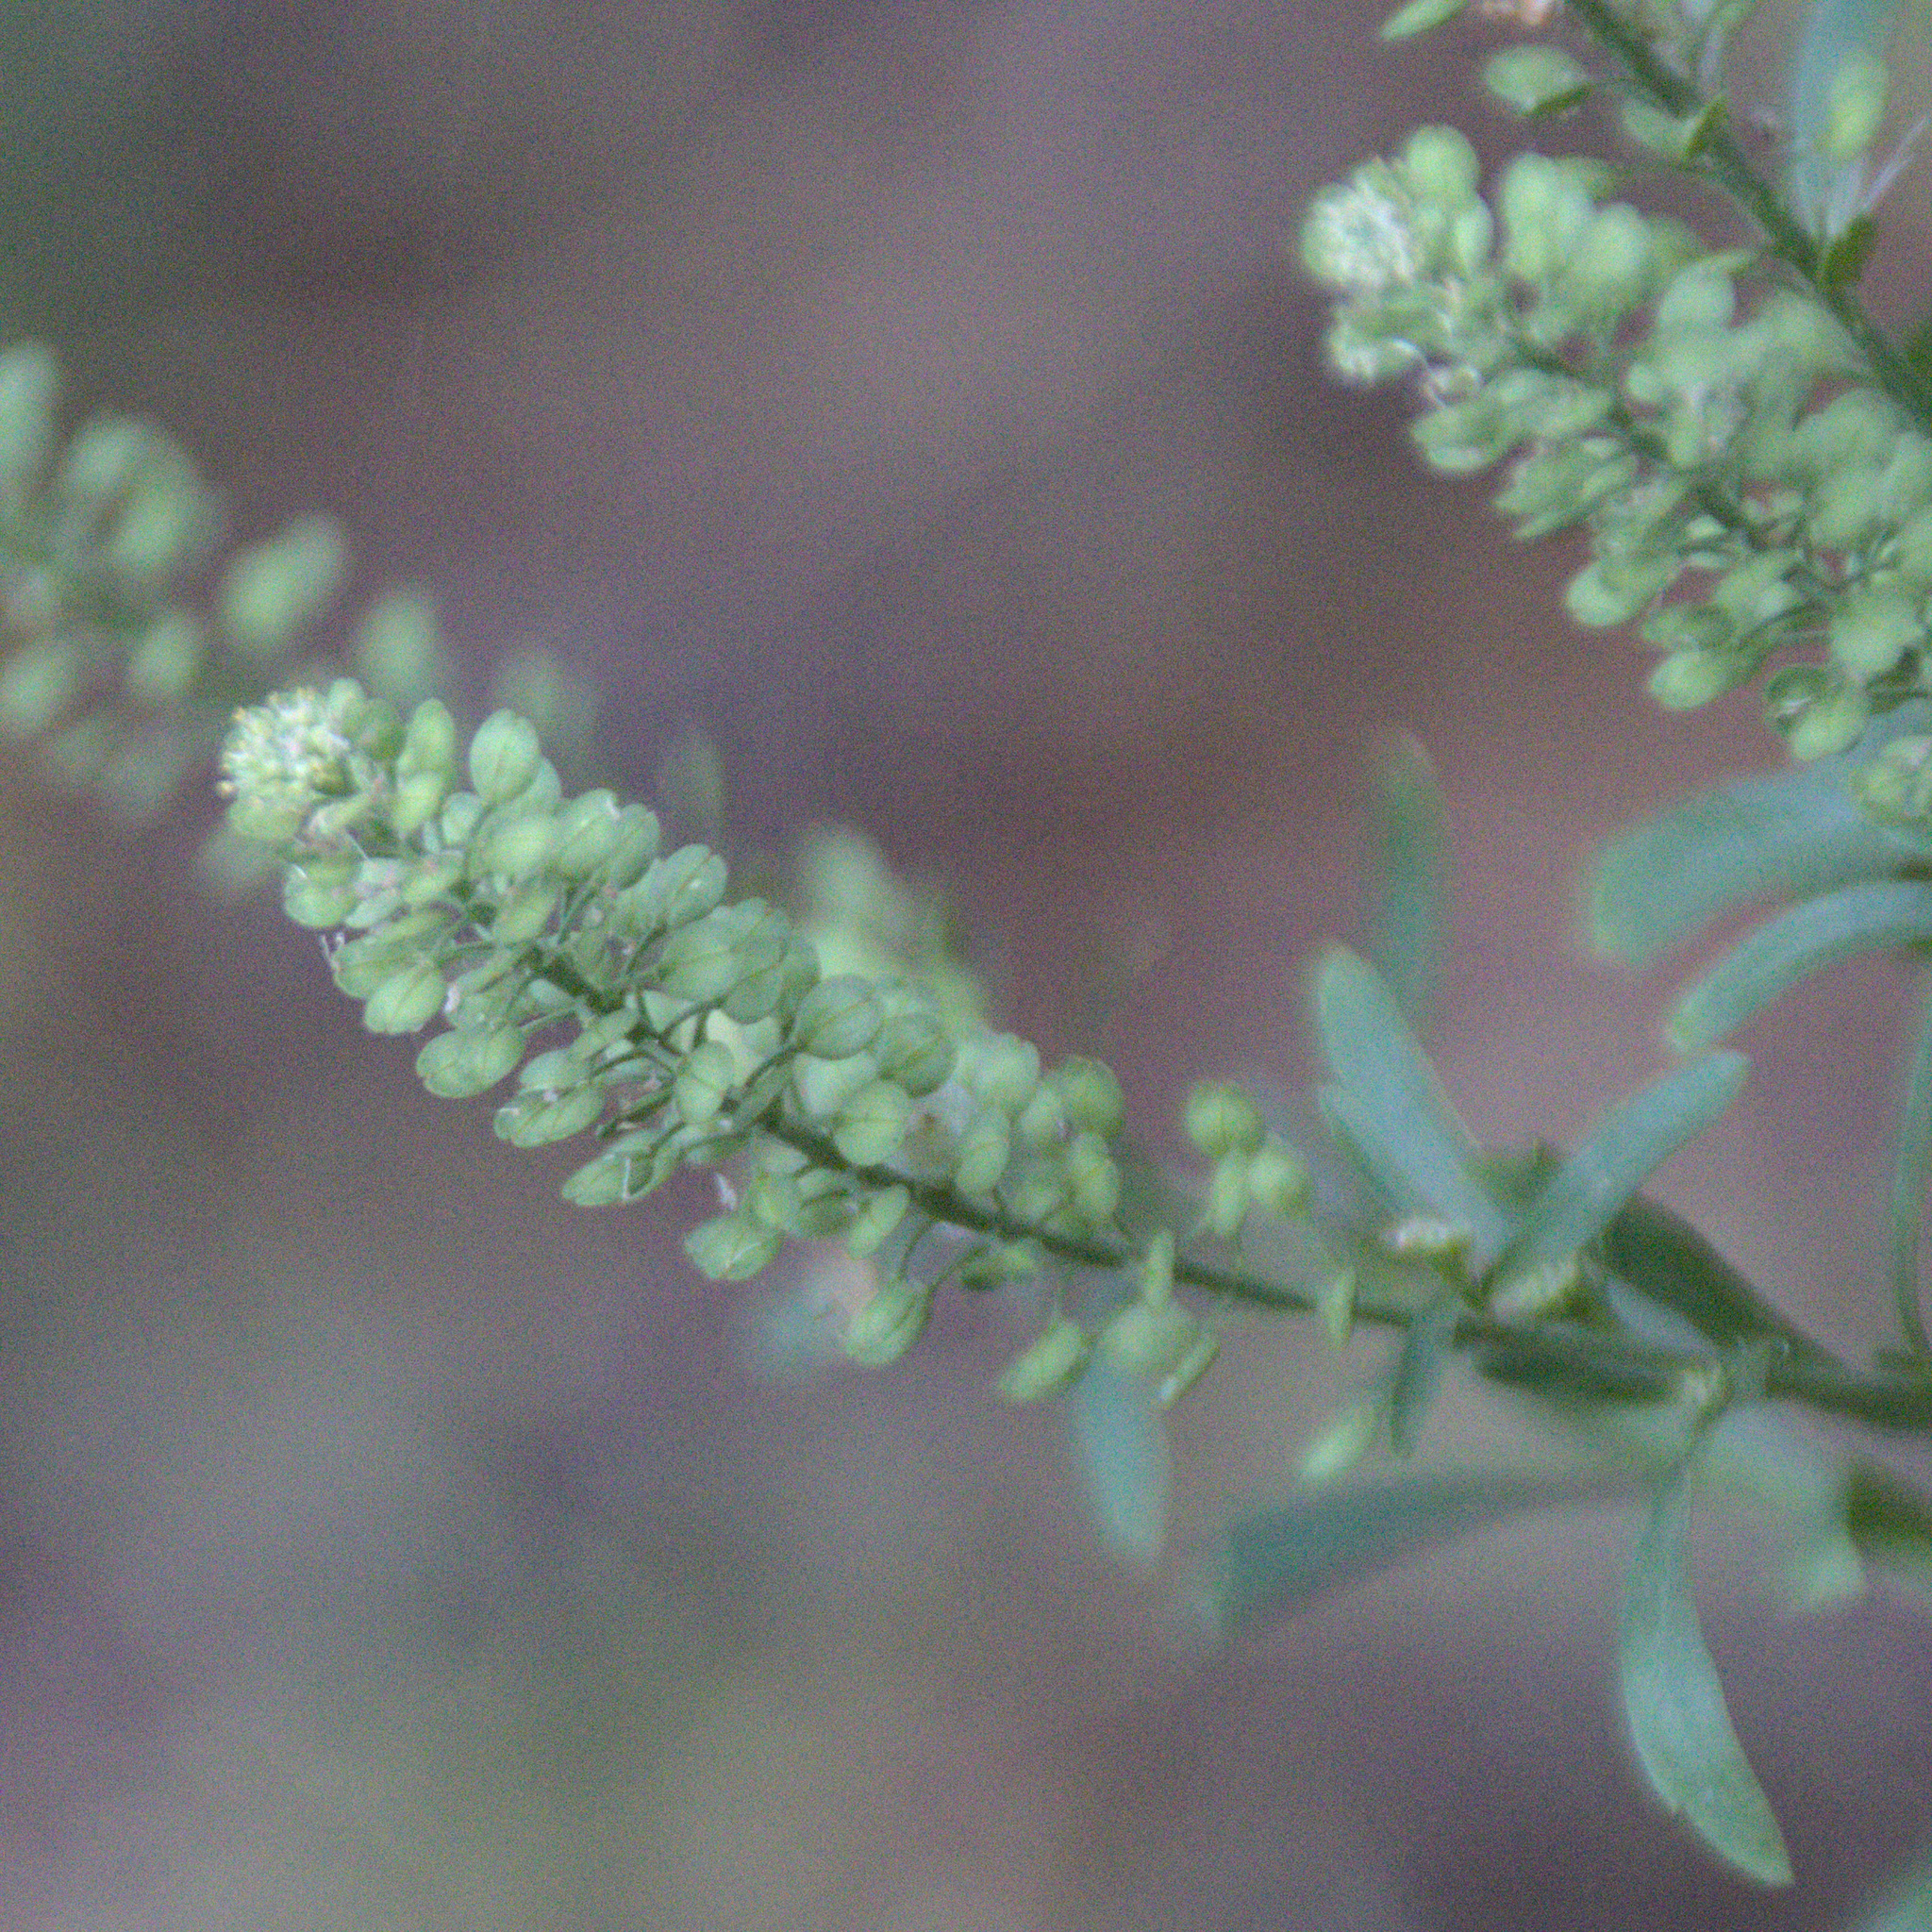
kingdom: Plantae
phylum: Tracheophyta
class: Magnoliopsida
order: Brassicales
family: Brassicaceae
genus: Lepidium
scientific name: Lepidium densiflorum
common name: Miner's pepperwort
